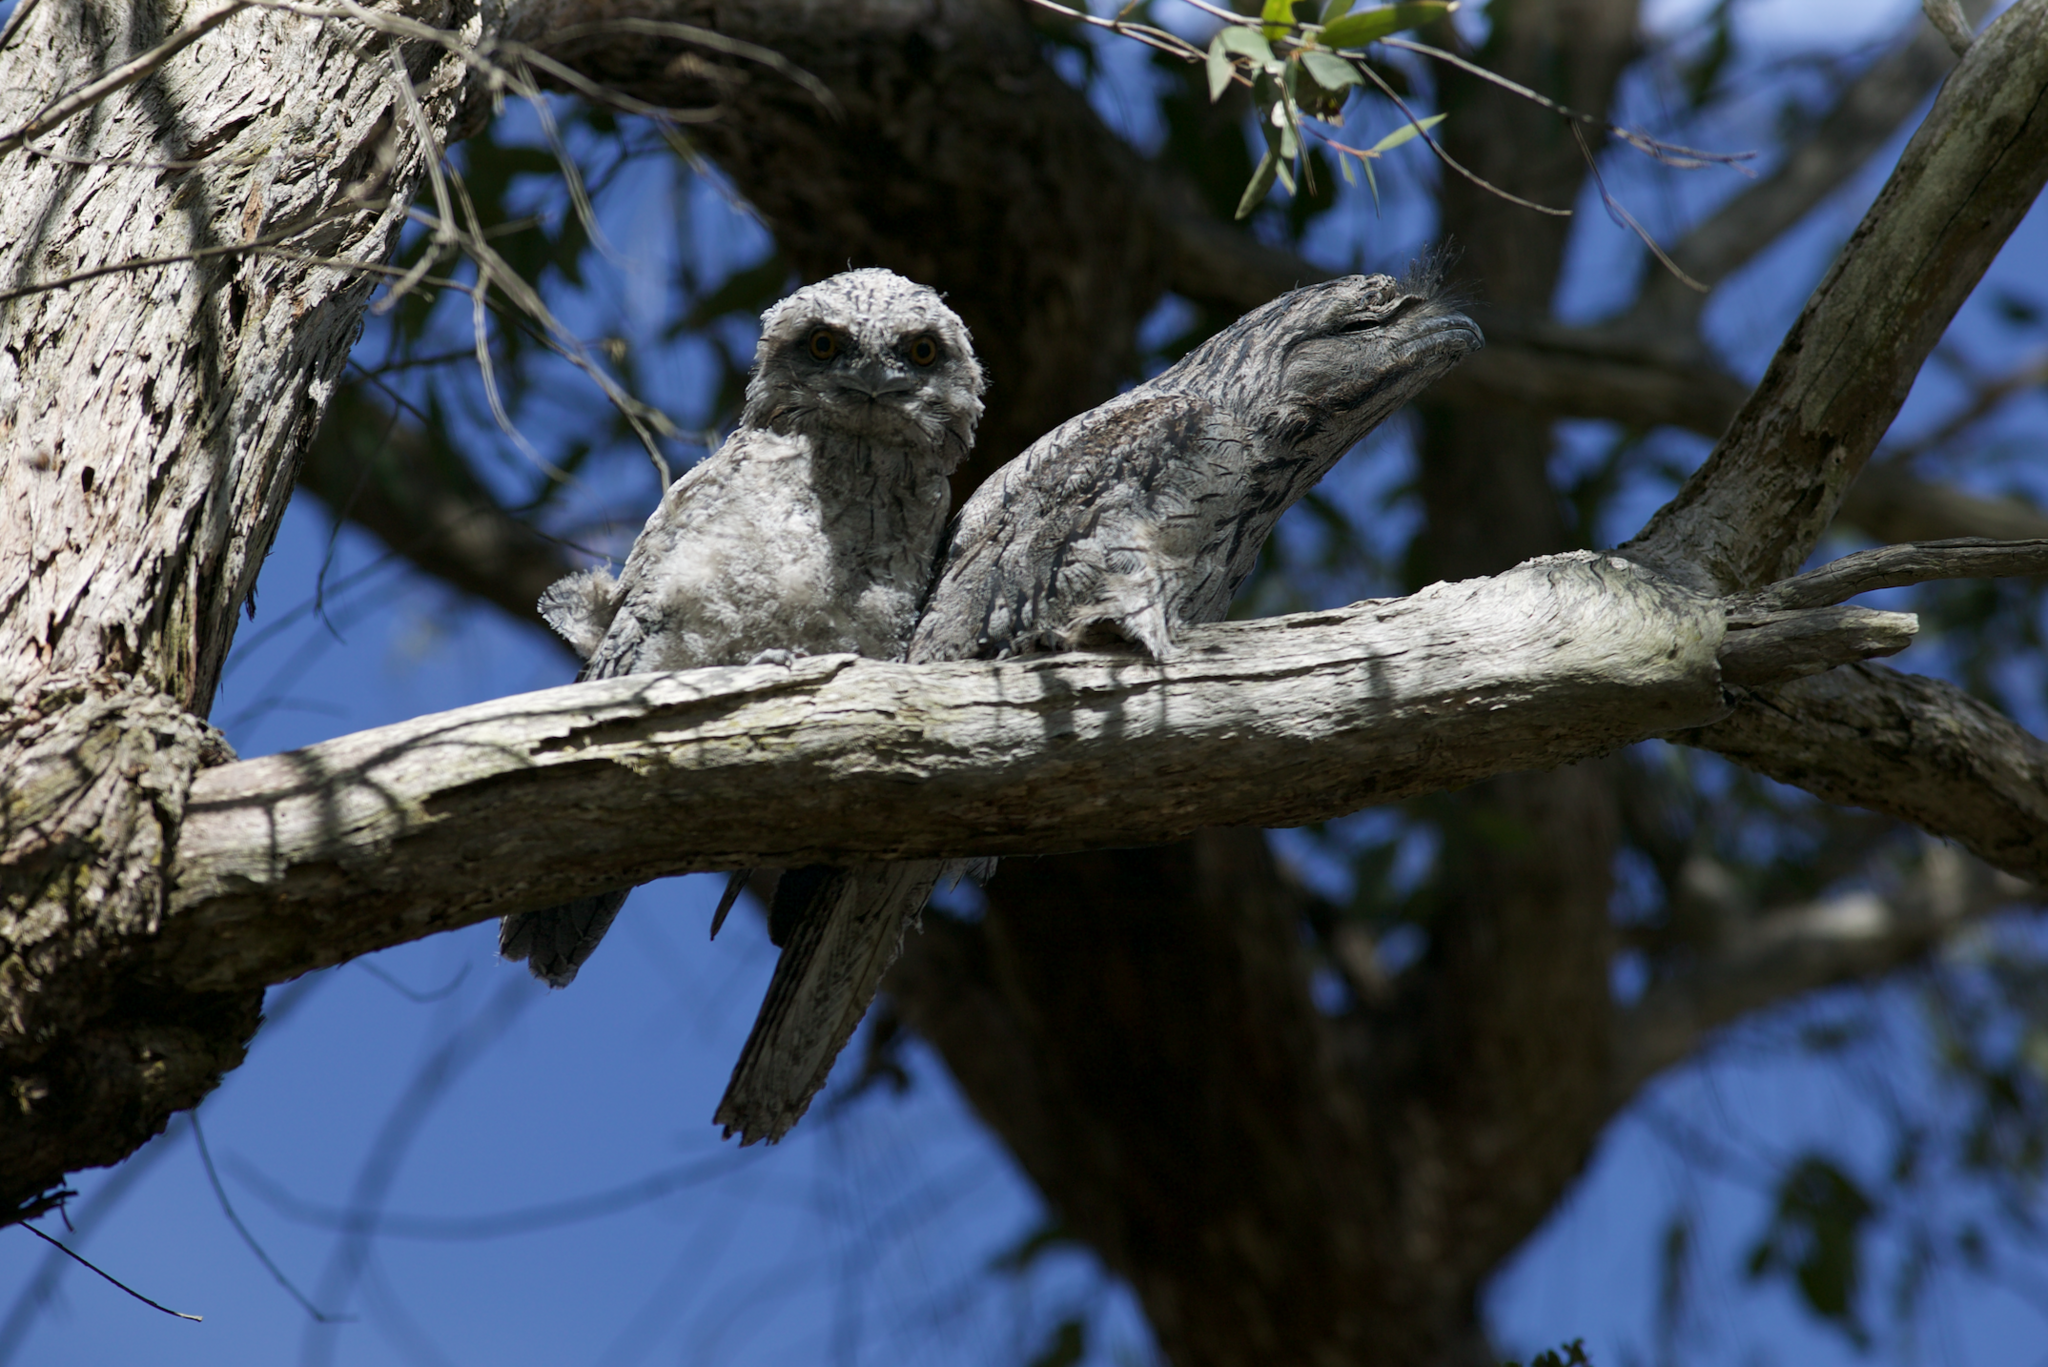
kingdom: Animalia
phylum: Chordata
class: Aves
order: Caprimulgiformes
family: Podargidae
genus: Podargus
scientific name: Podargus strigoides
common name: Tawny frogmouth
